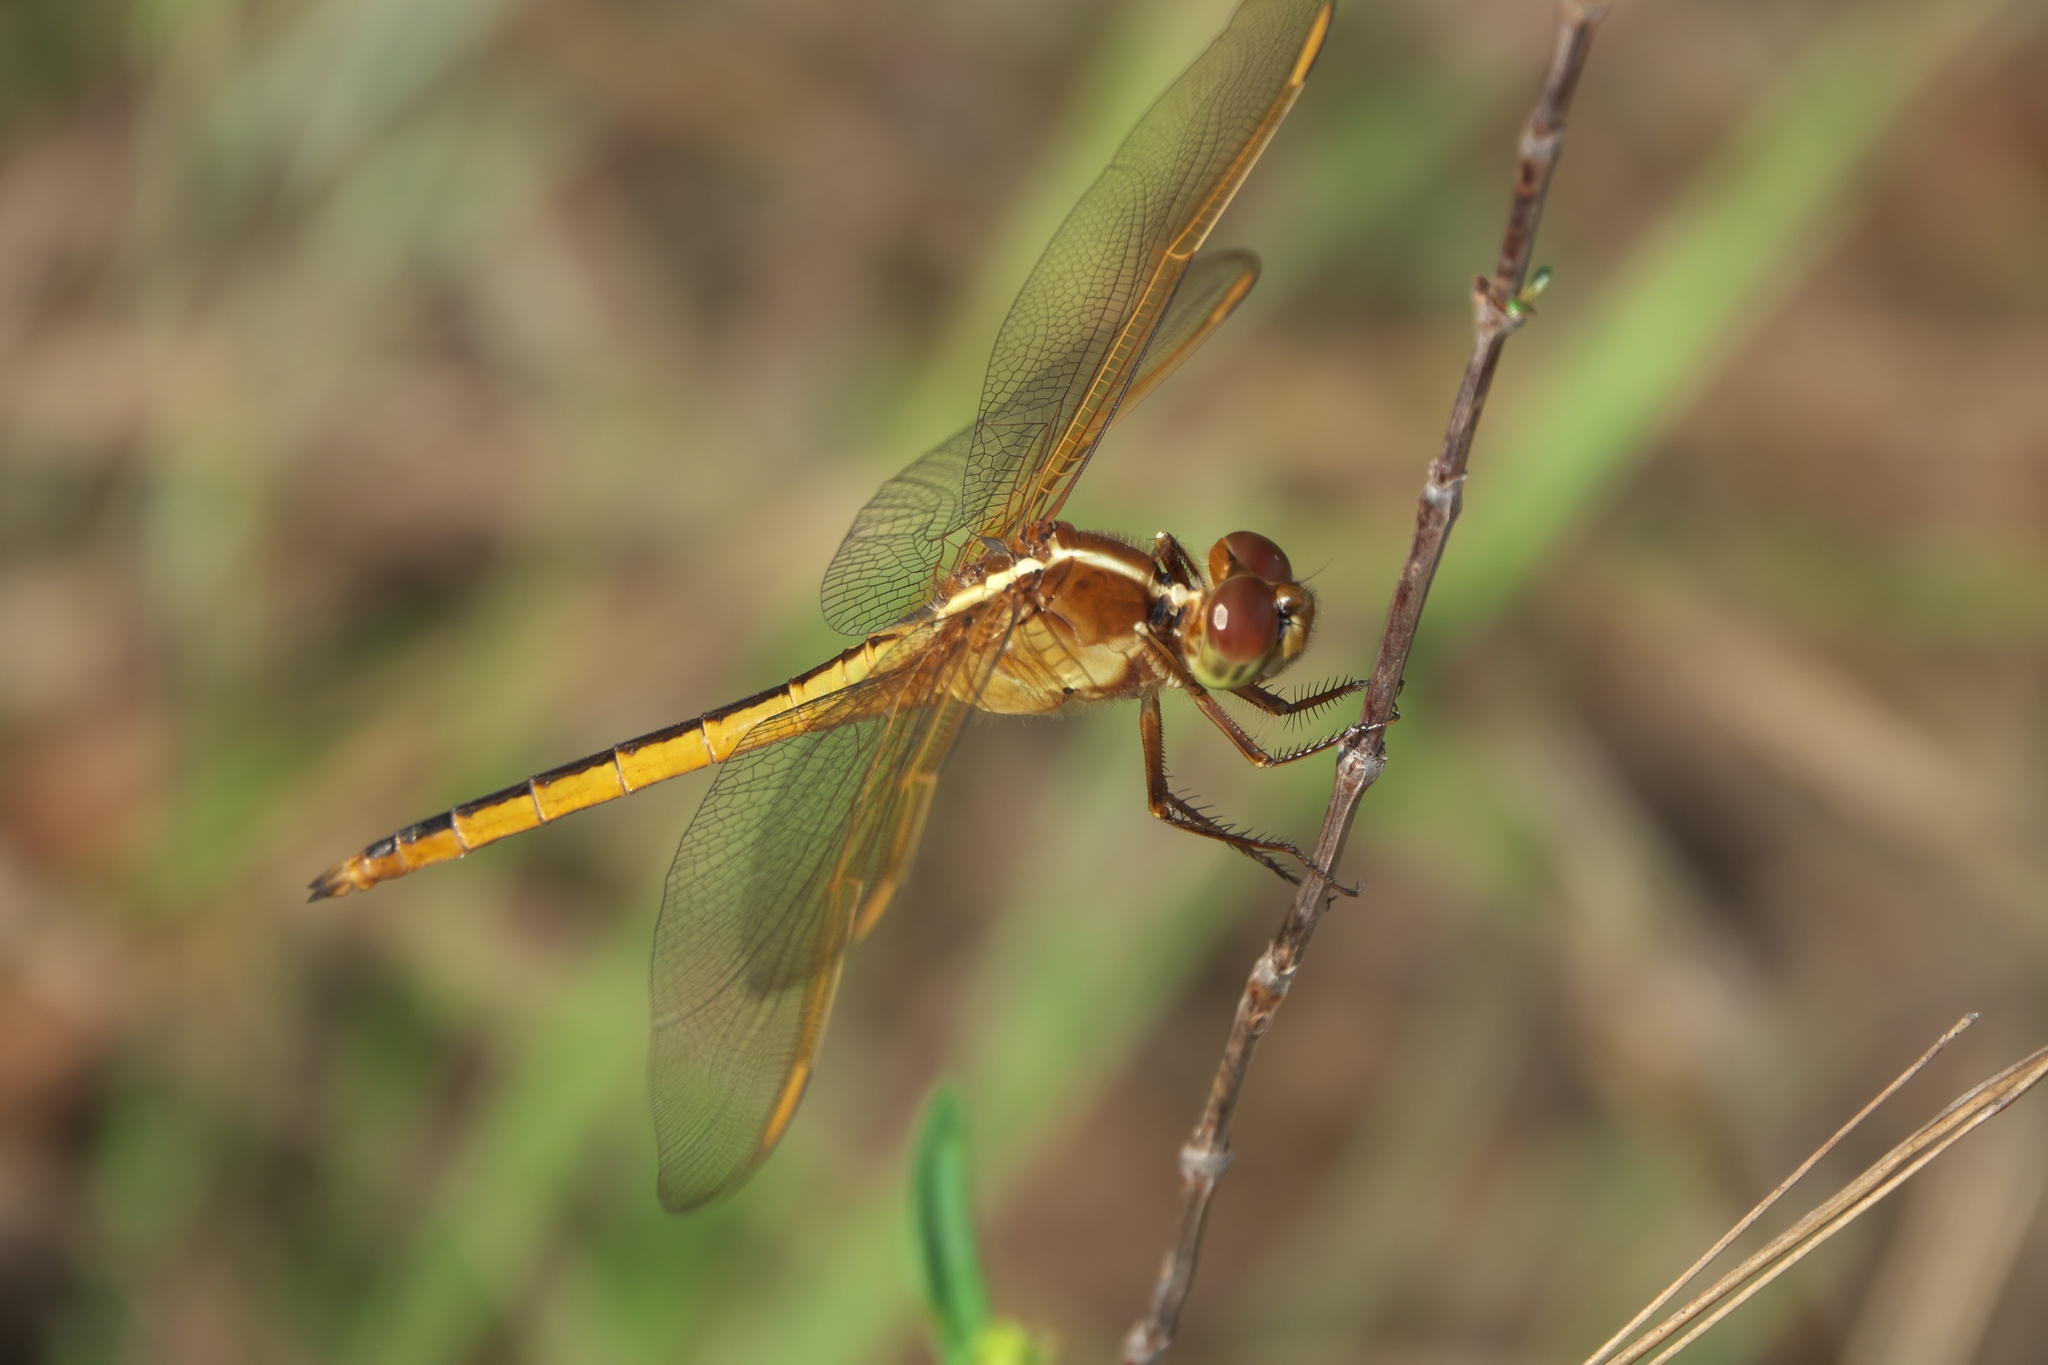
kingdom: Animalia
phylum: Arthropoda
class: Insecta
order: Odonata
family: Libellulidae
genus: Libellula
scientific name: Libellula needhami
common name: Needham's skimmer
